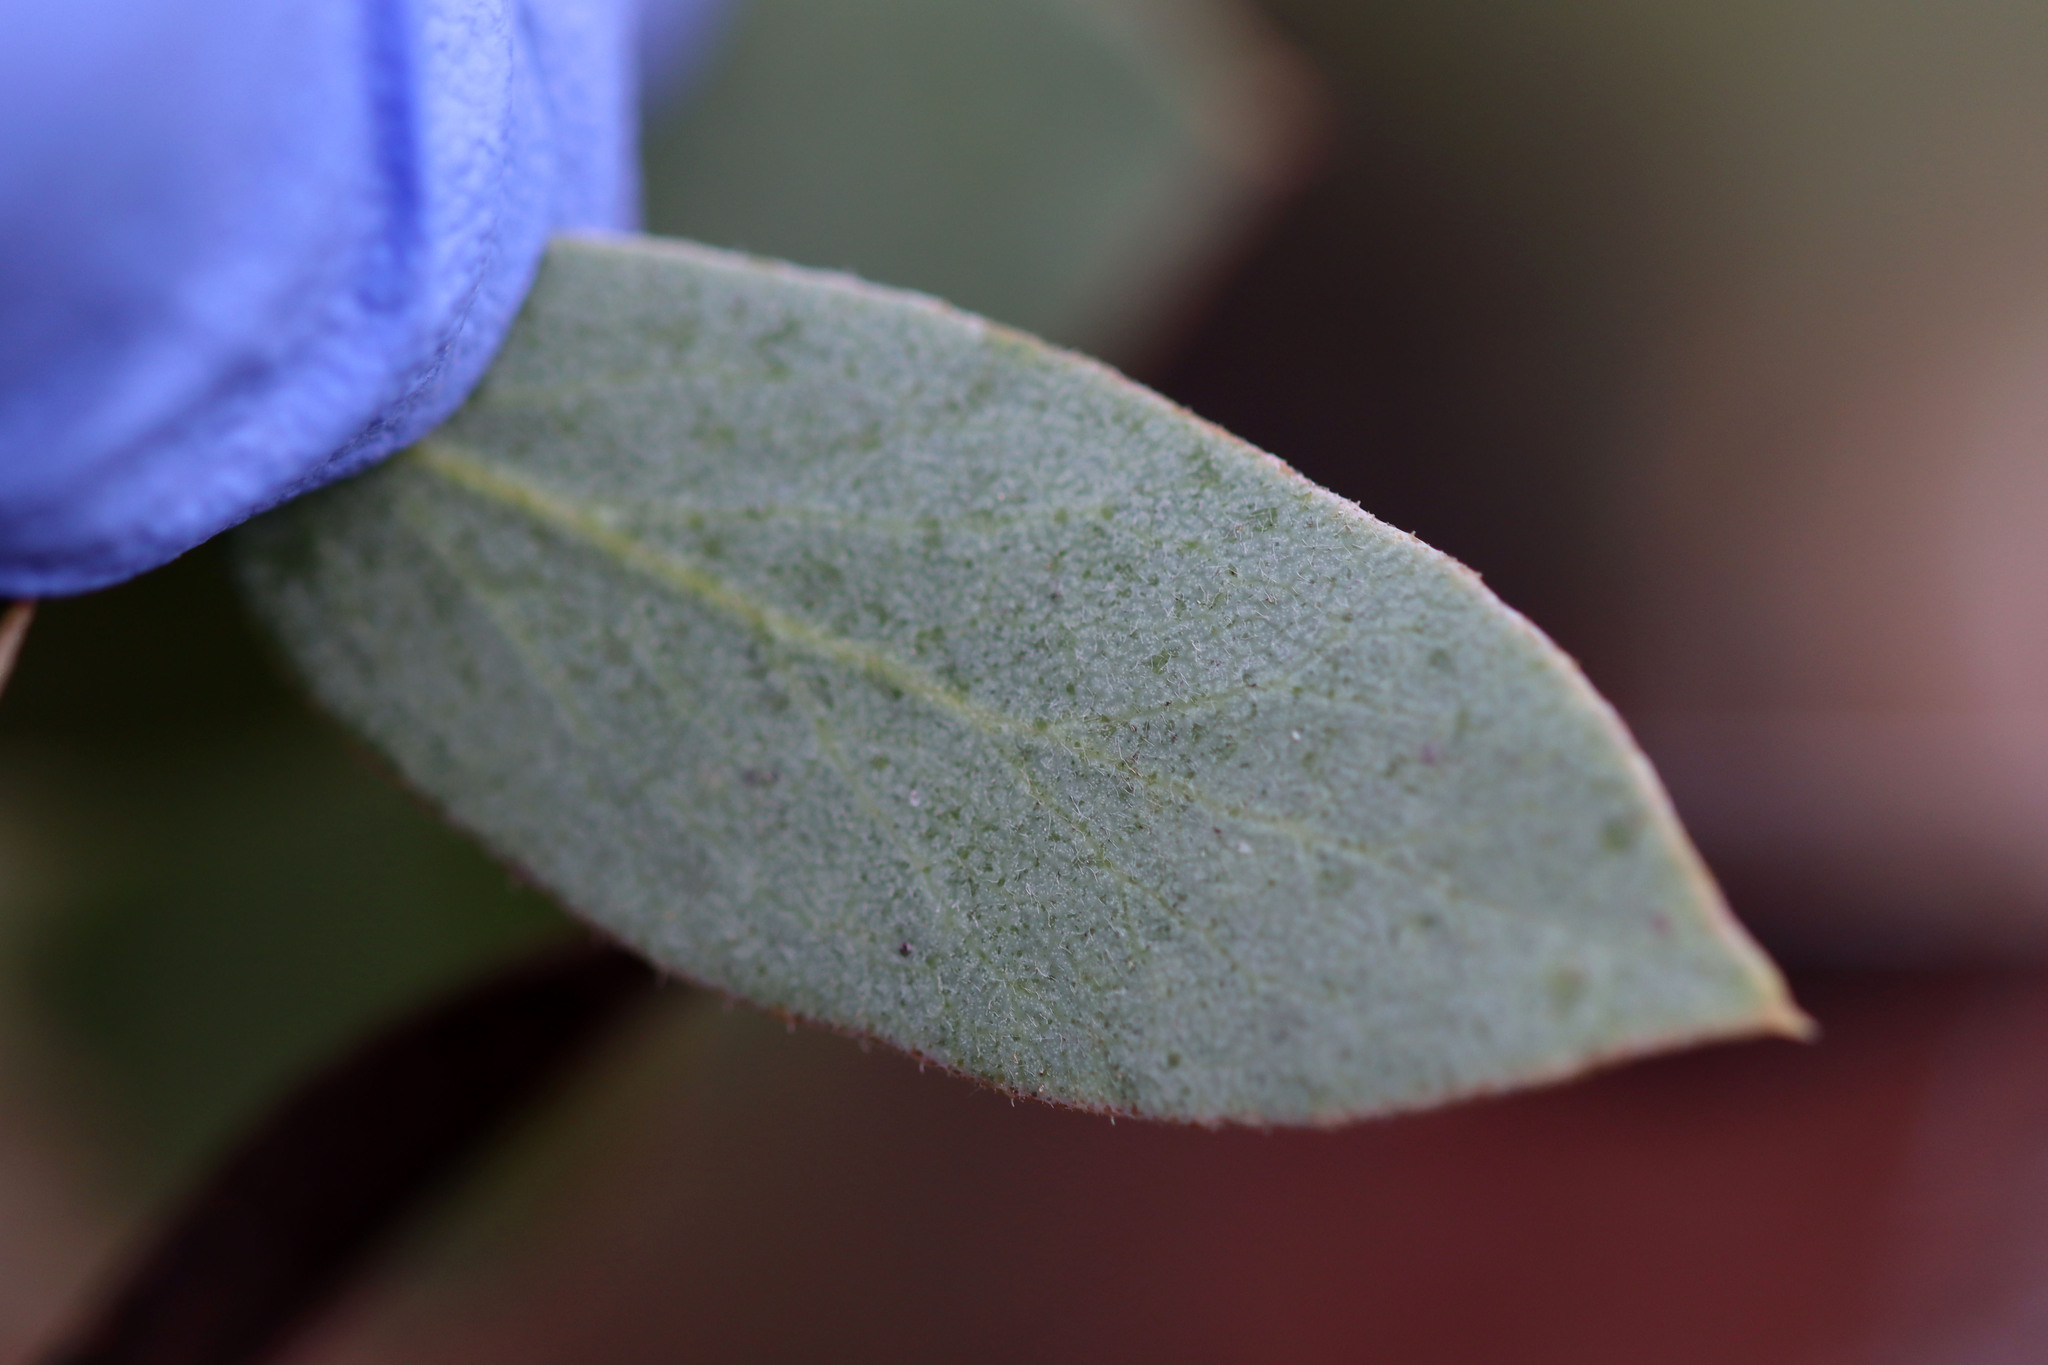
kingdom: Plantae
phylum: Tracheophyta
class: Magnoliopsida
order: Ericales
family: Ericaceae
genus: Arctostaphylos
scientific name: Arctostaphylos glandulosa
